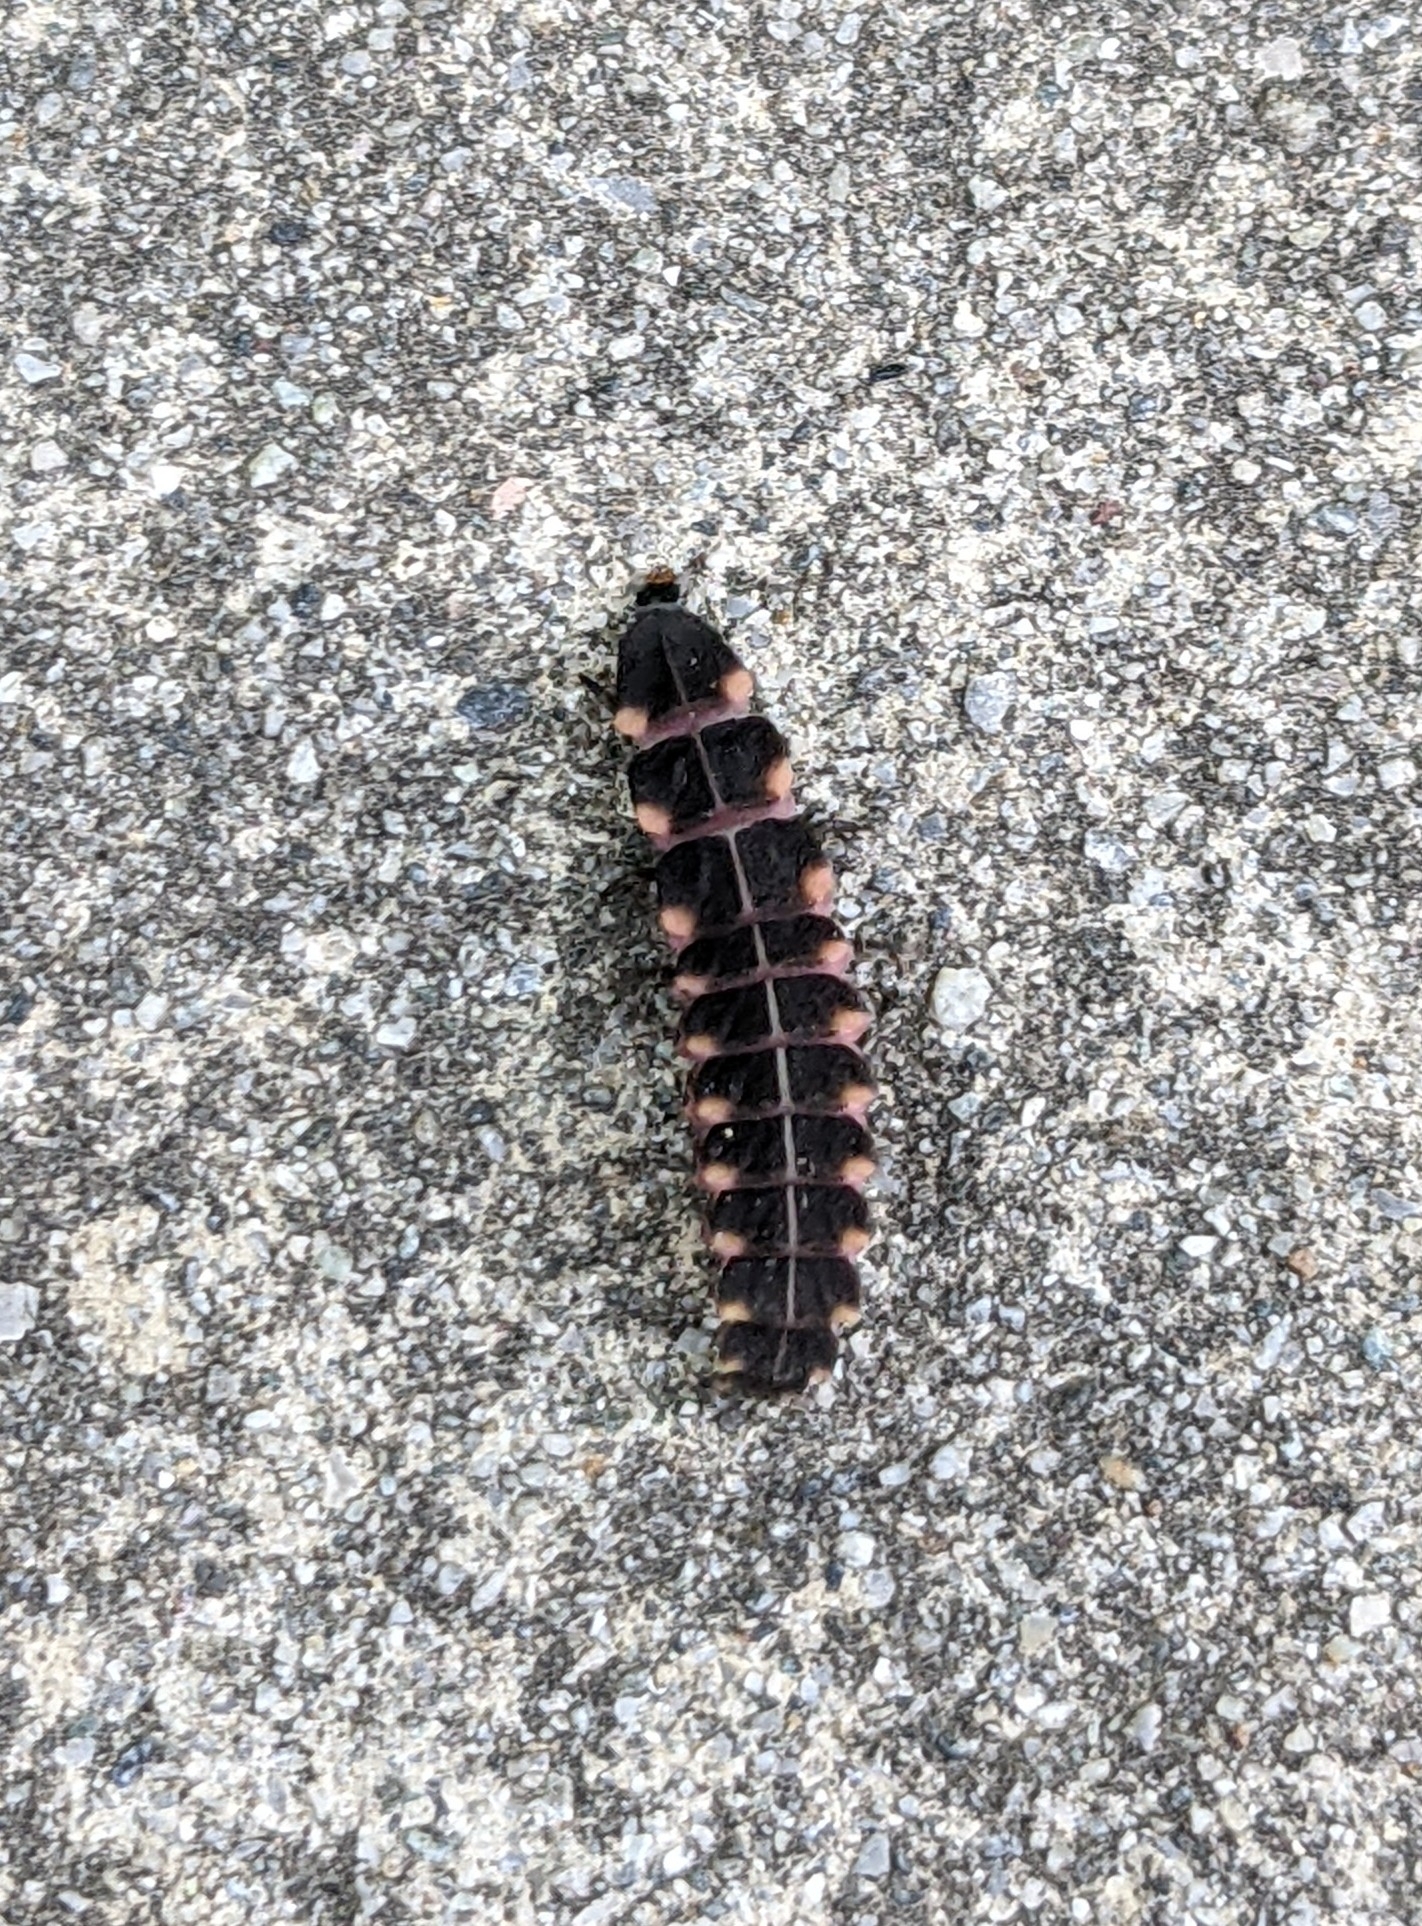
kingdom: Animalia
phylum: Arthropoda
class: Insecta
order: Coleoptera
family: Lampyridae
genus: Lampyris
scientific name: Lampyris noctiluca
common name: Glow-worm
